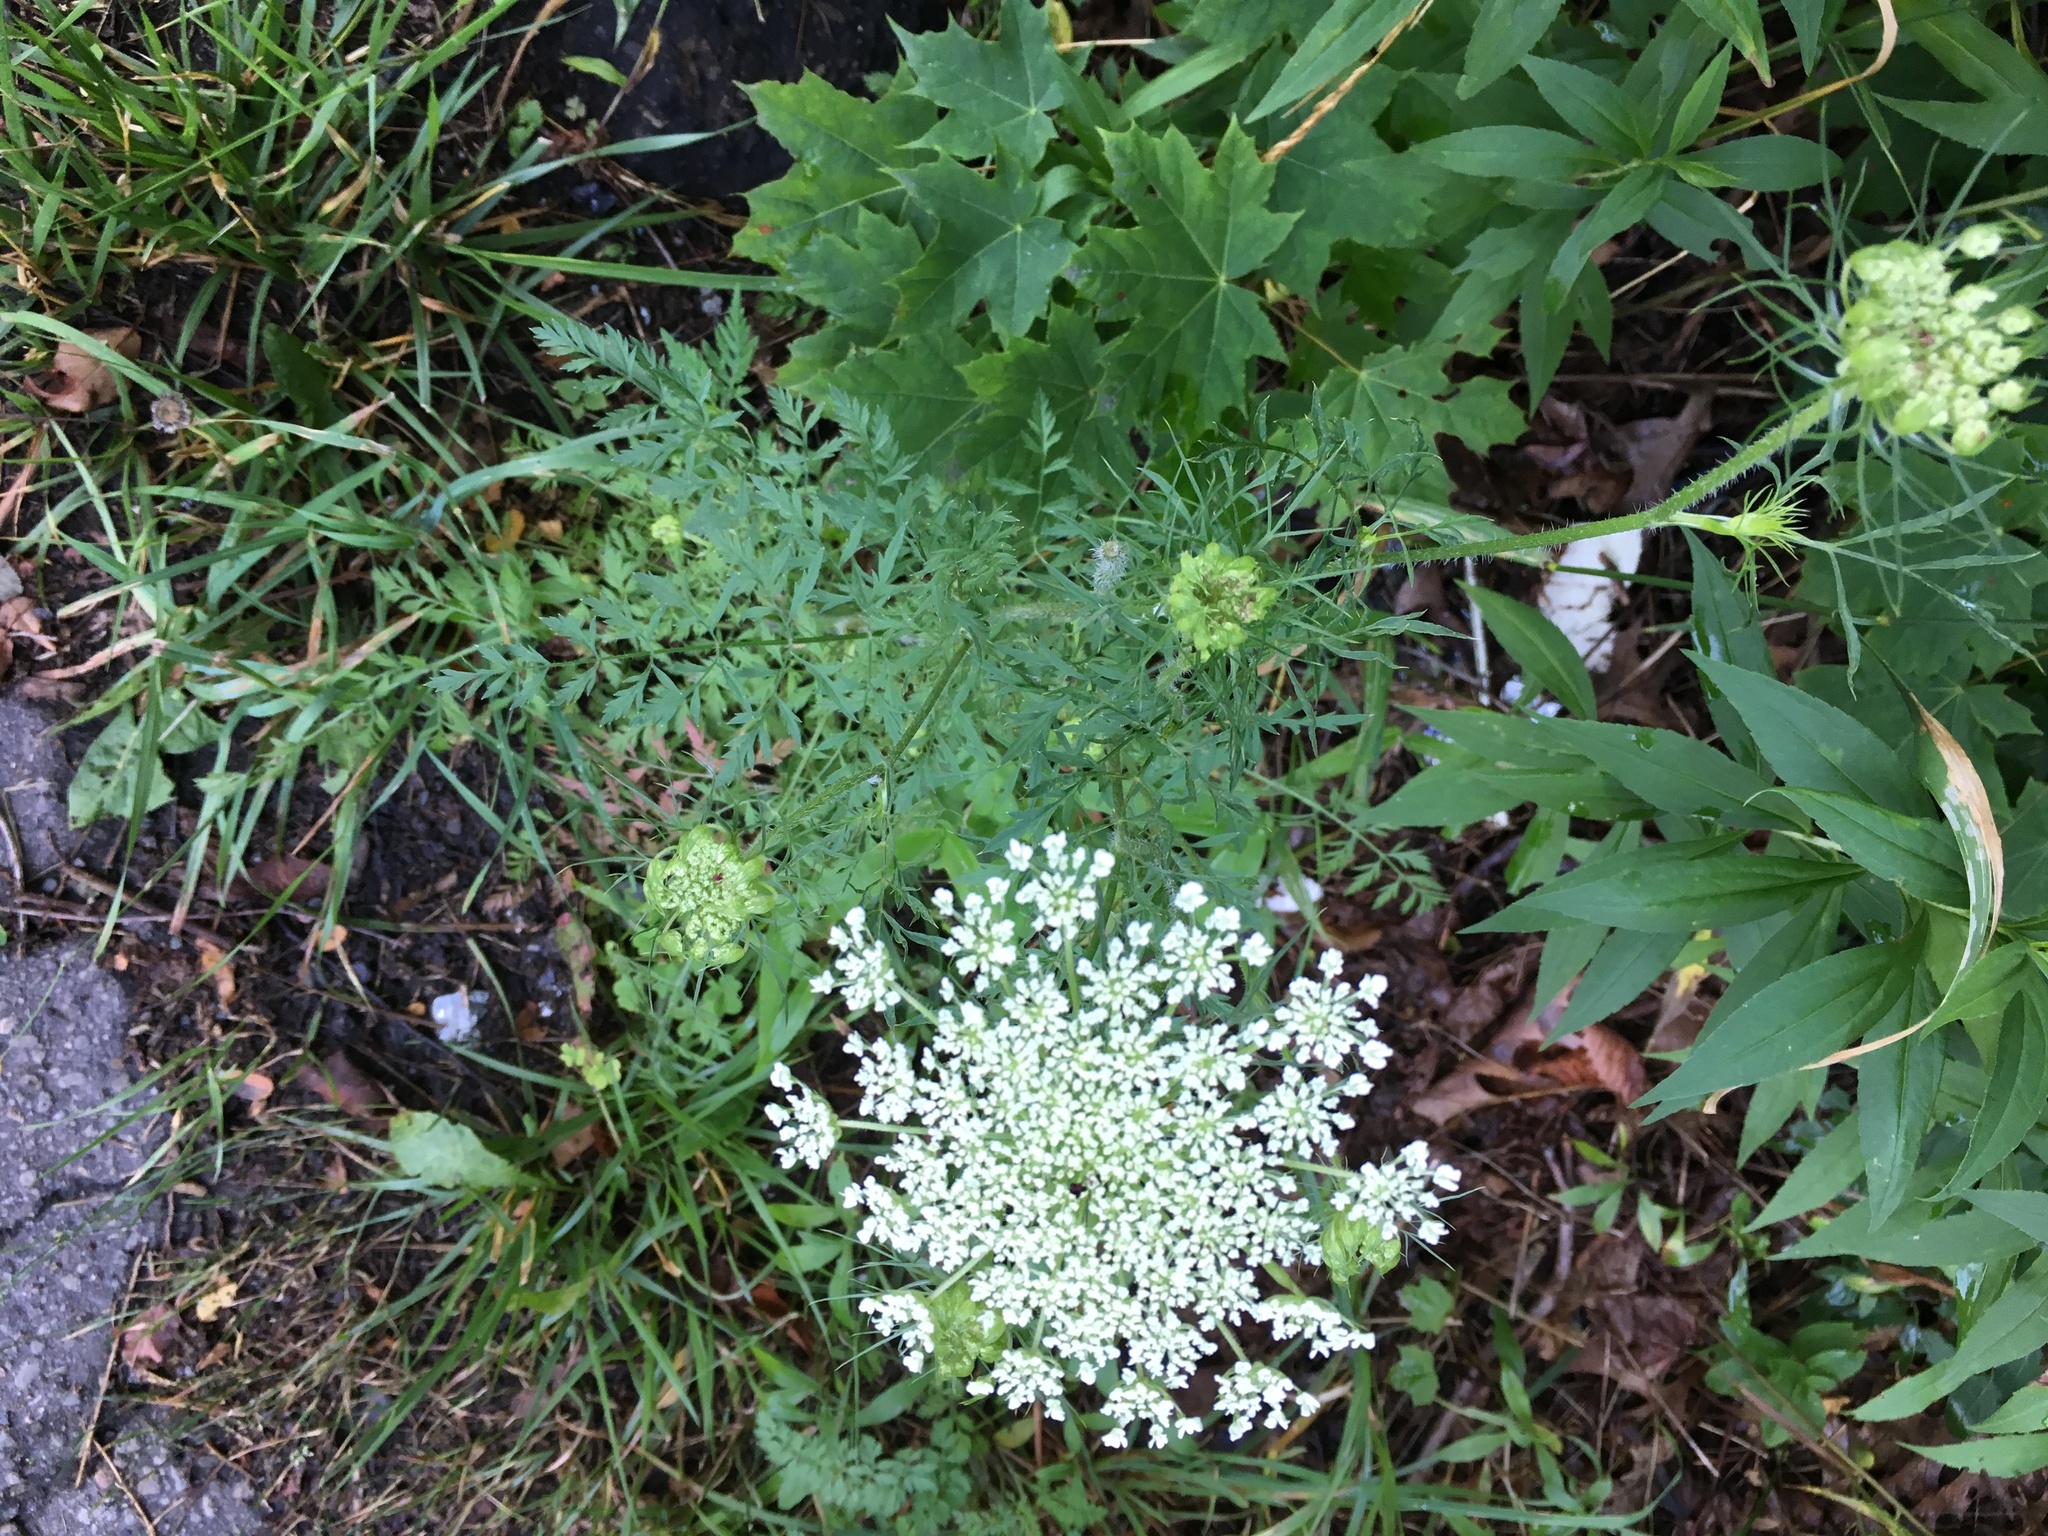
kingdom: Plantae
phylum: Tracheophyta
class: Magnoliopsida
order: Apiales
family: Apiaceae
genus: Daucus
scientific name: Daucus carota
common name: Wild carrot
